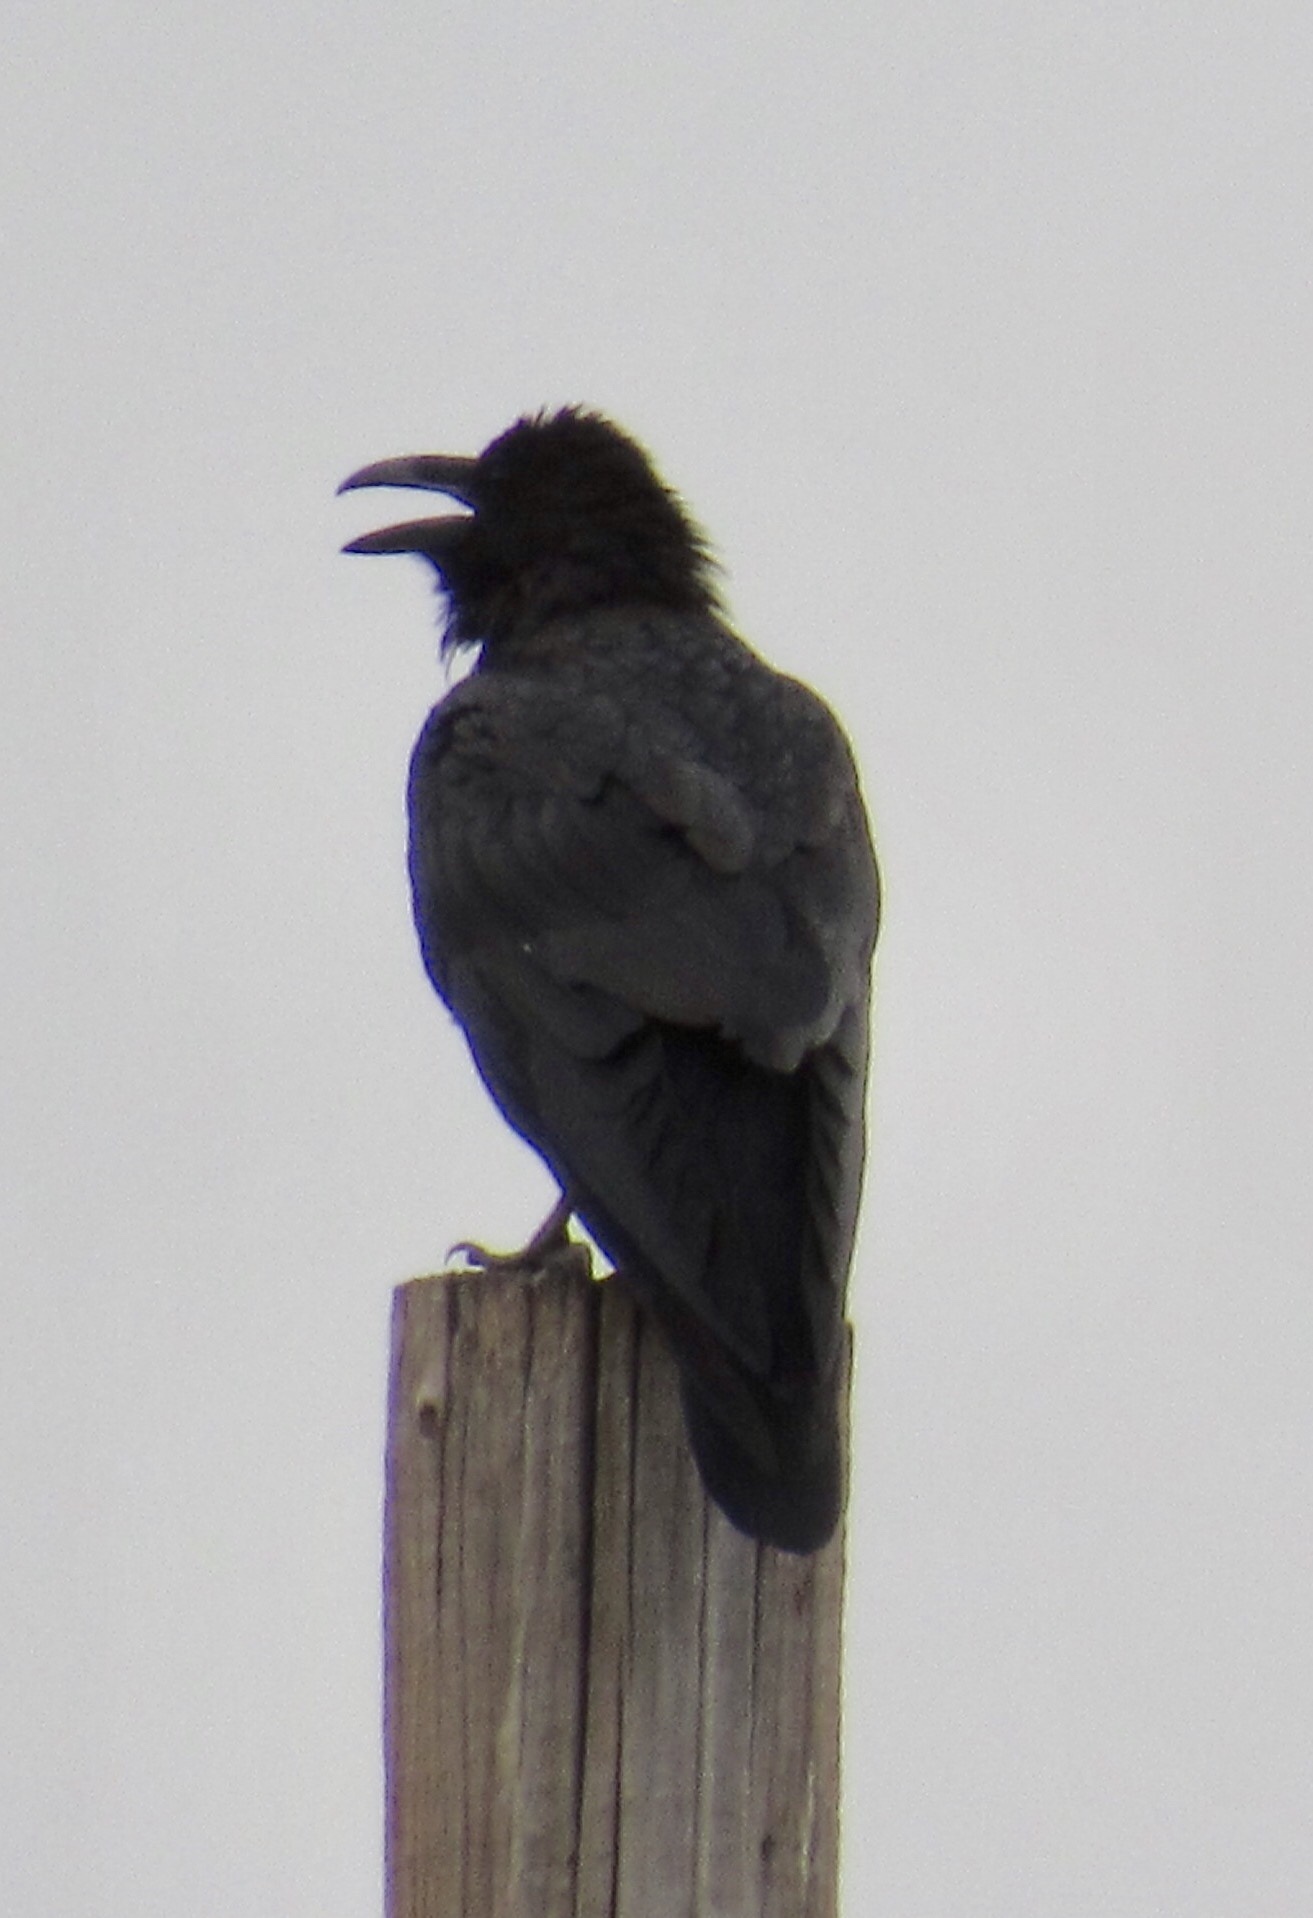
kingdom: Animalia
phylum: Chordata
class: Aves
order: Passeriformes
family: Corvidae
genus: Corvus
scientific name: Corvus corax
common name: Common raven
